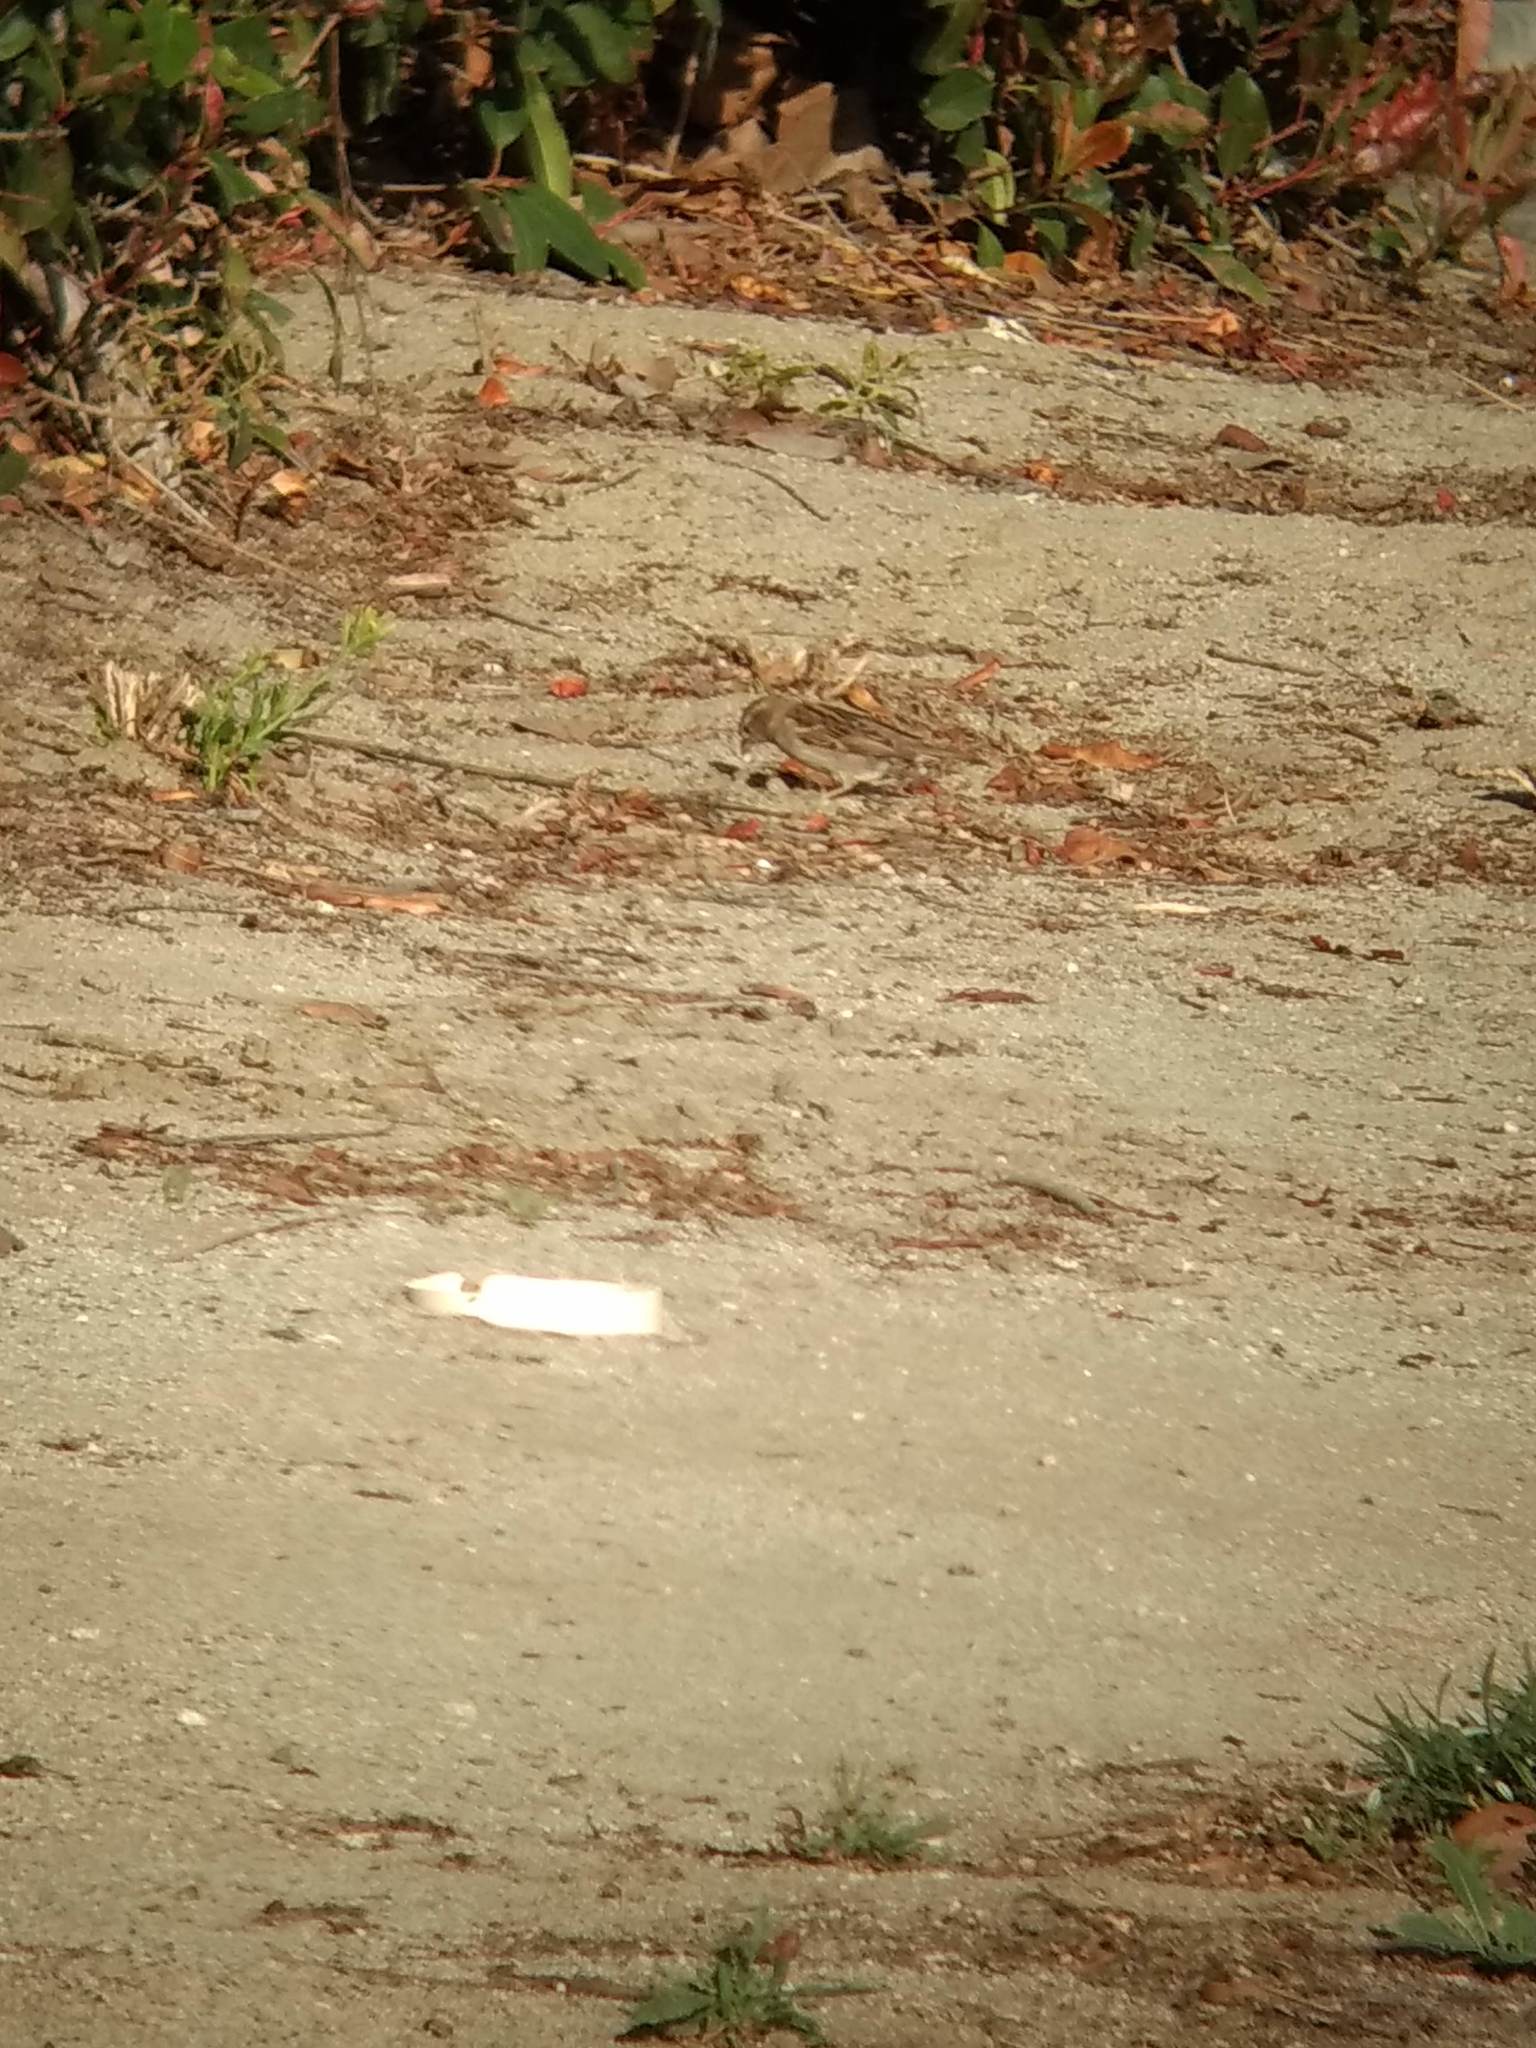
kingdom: Animalia
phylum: Chordata
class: Aves
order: Passeriformes
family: Passeridae
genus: Passer
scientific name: Passer domesticus
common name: House sparrow
